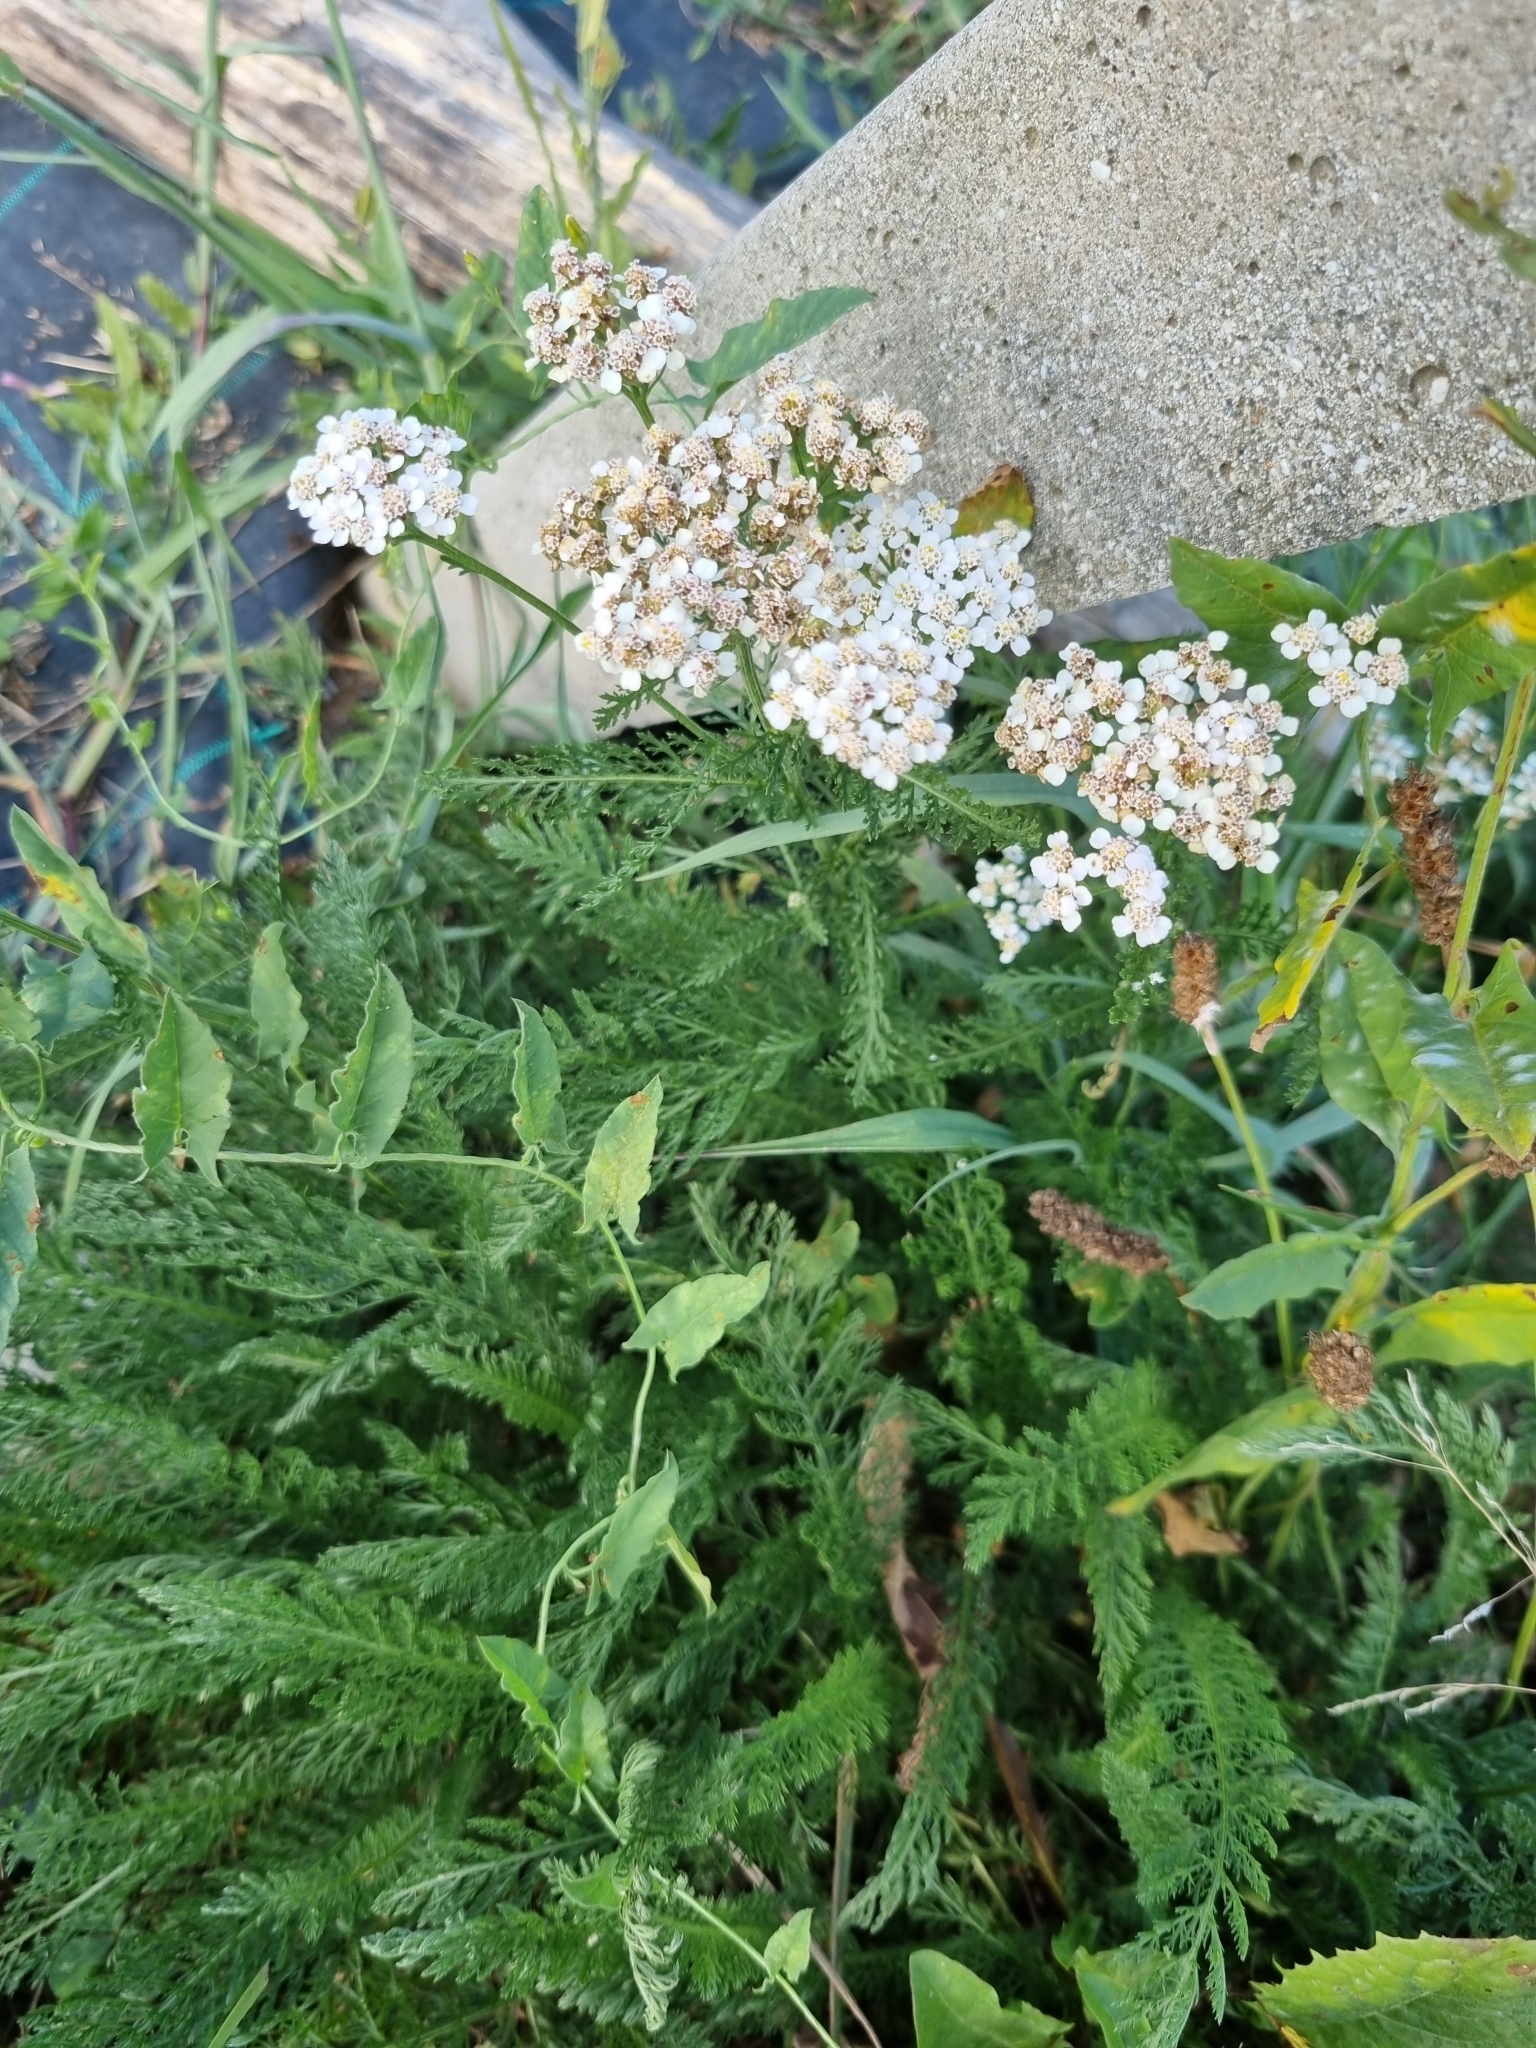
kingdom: Plantae
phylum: Tracheophyta
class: Magnoliopsida
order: Asterales
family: Asteraceae
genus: Achillea
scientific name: Achillea millefolium
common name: Yarrow
